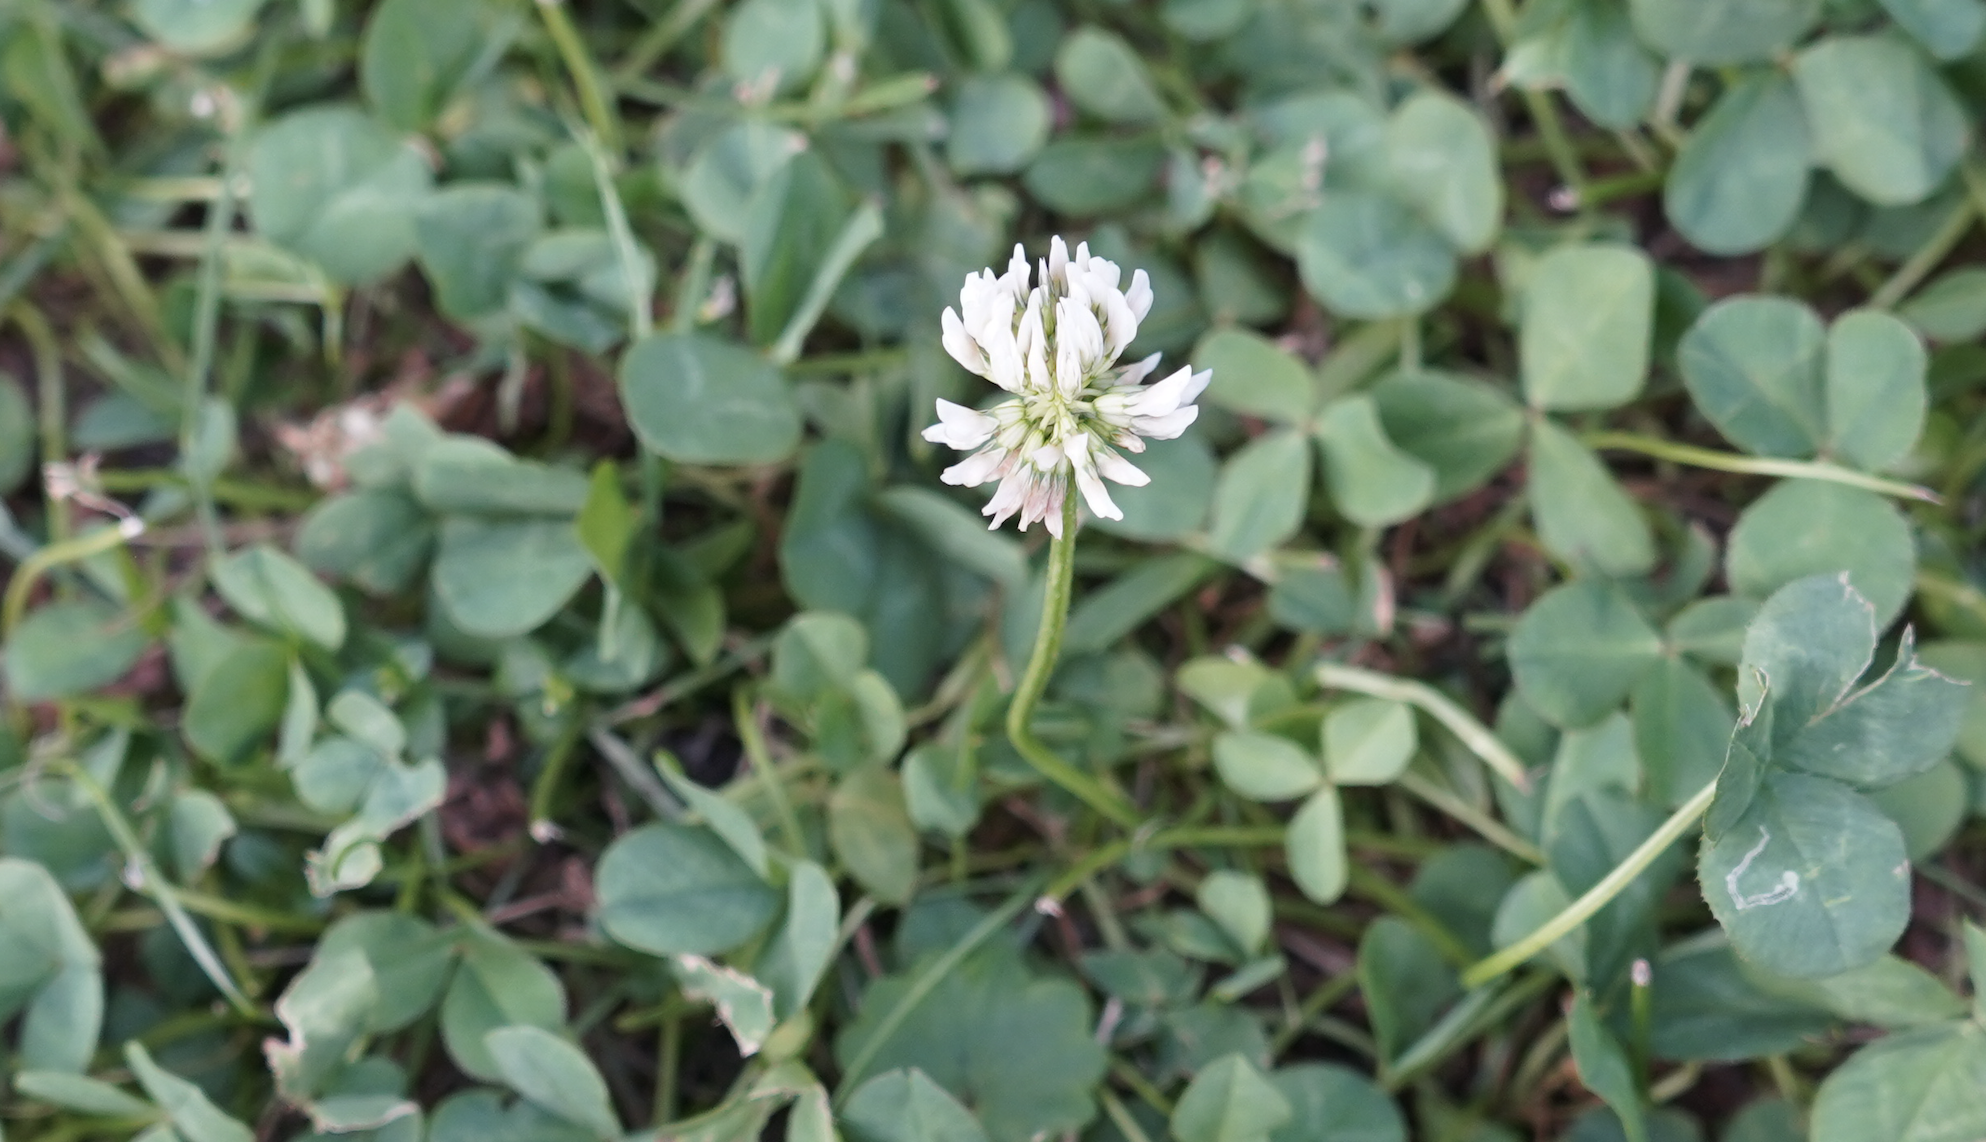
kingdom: Plantae
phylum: Tracheophyta
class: Magnoliopsida
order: Fabales
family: Fabaceae
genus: Trifolium
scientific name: Trifolium repens
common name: White clover
